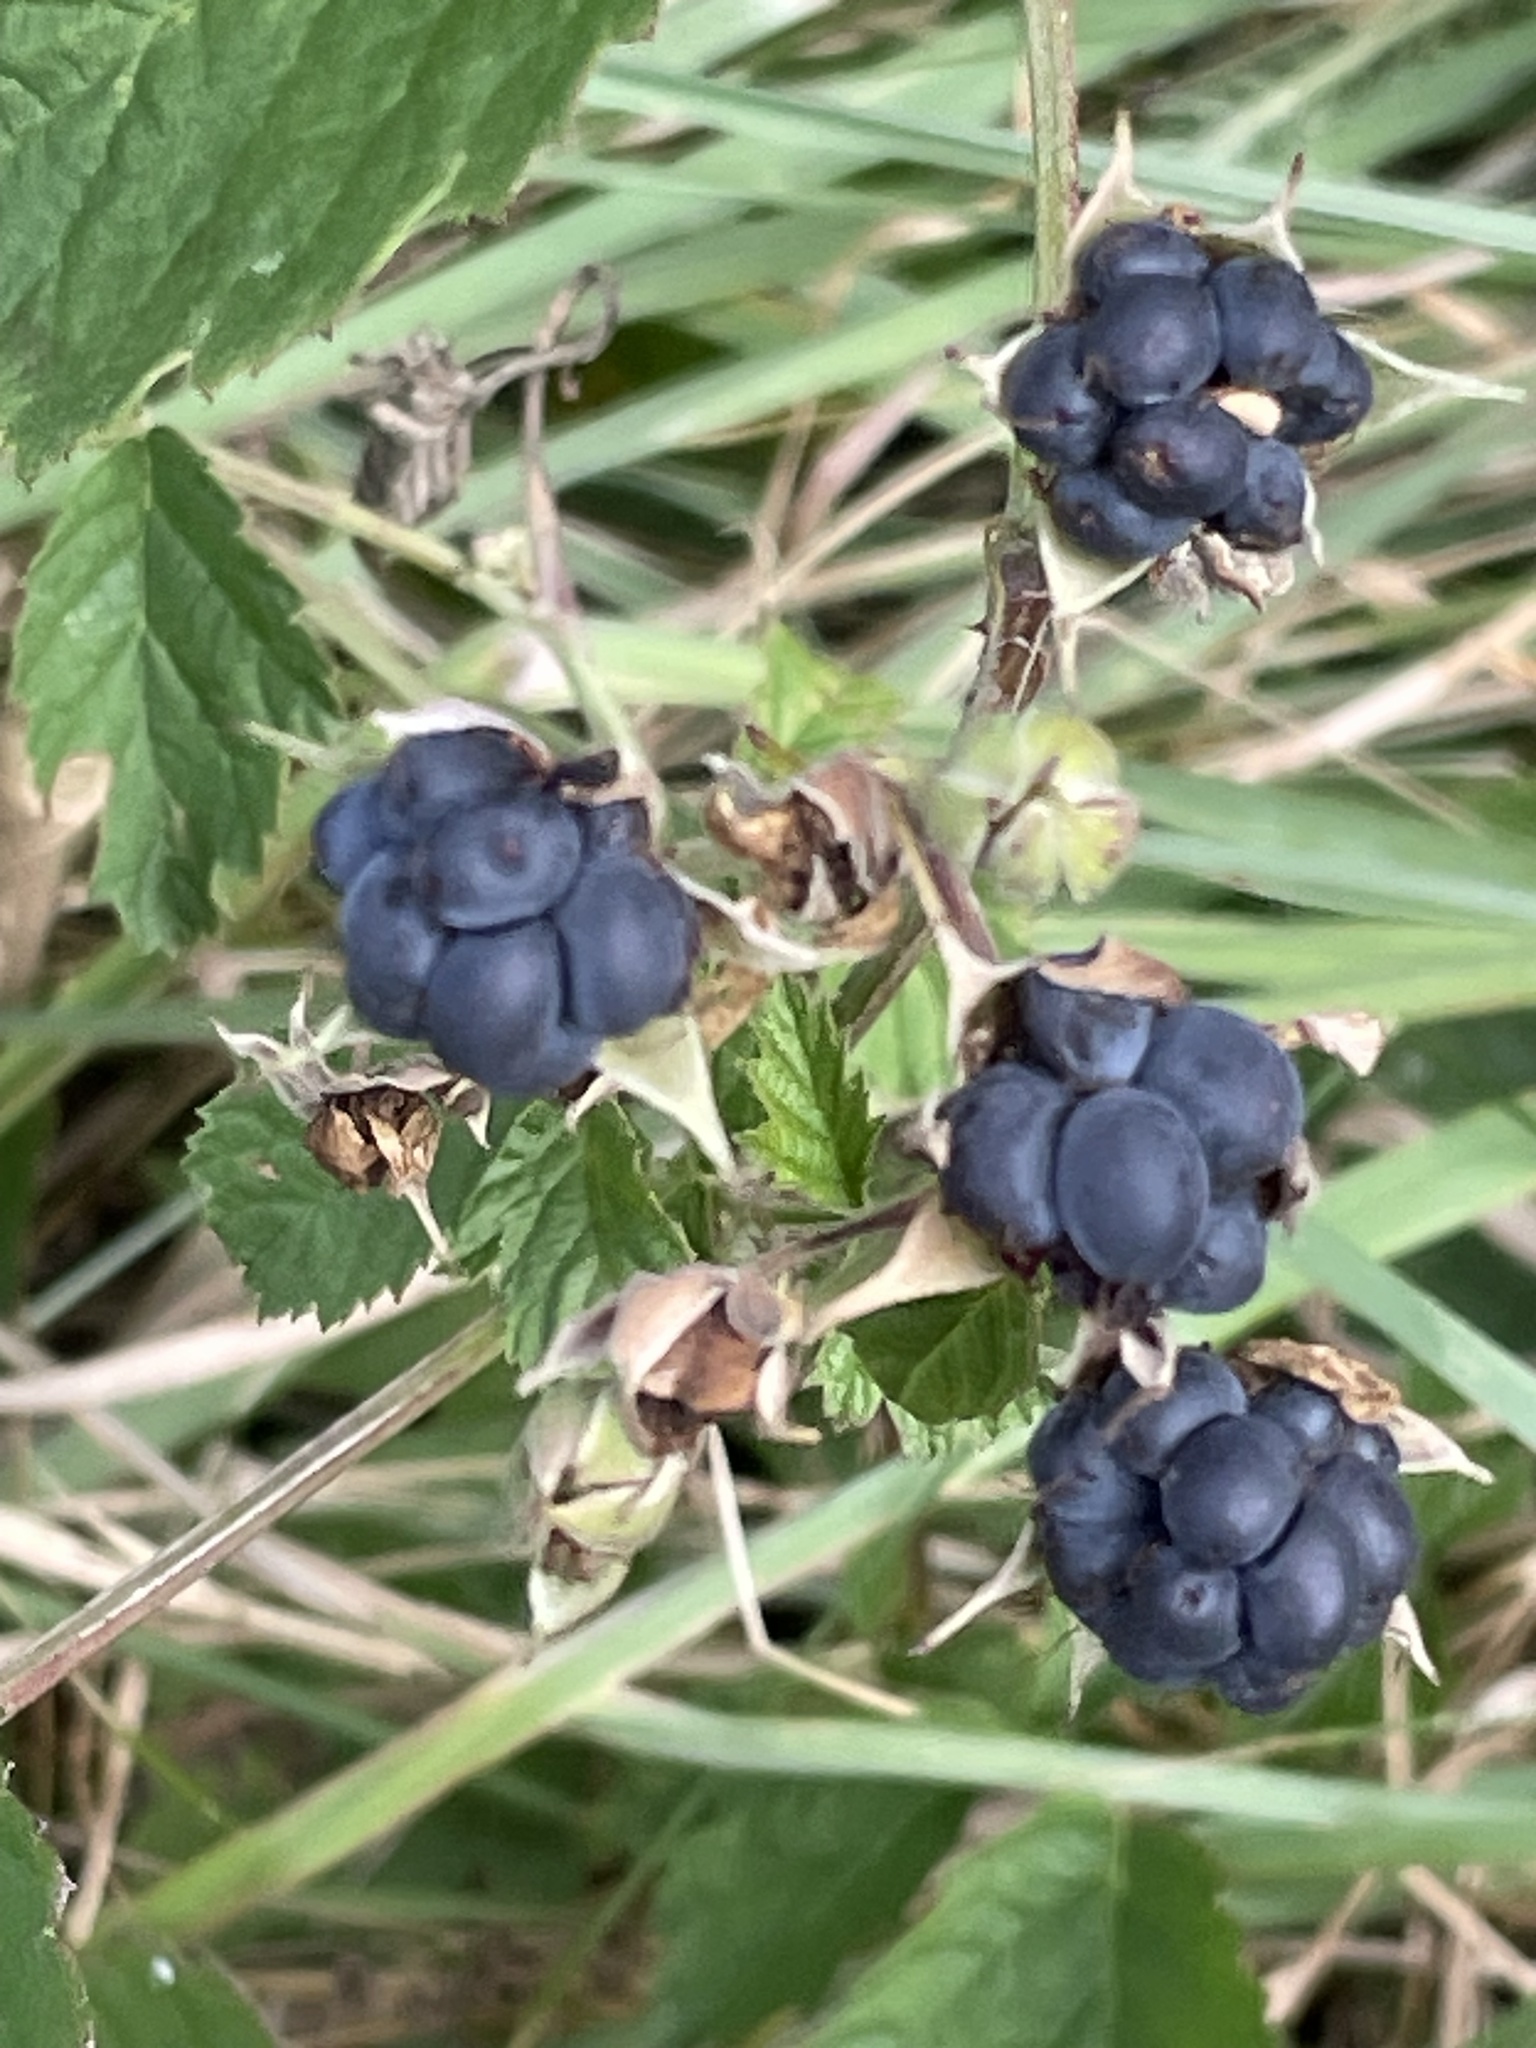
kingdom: Plantae
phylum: Tracheophyta
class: Magnoliopsida
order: Rosales
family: Rosaceae
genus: Rubus
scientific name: Rubus caesius
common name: Dewberry
